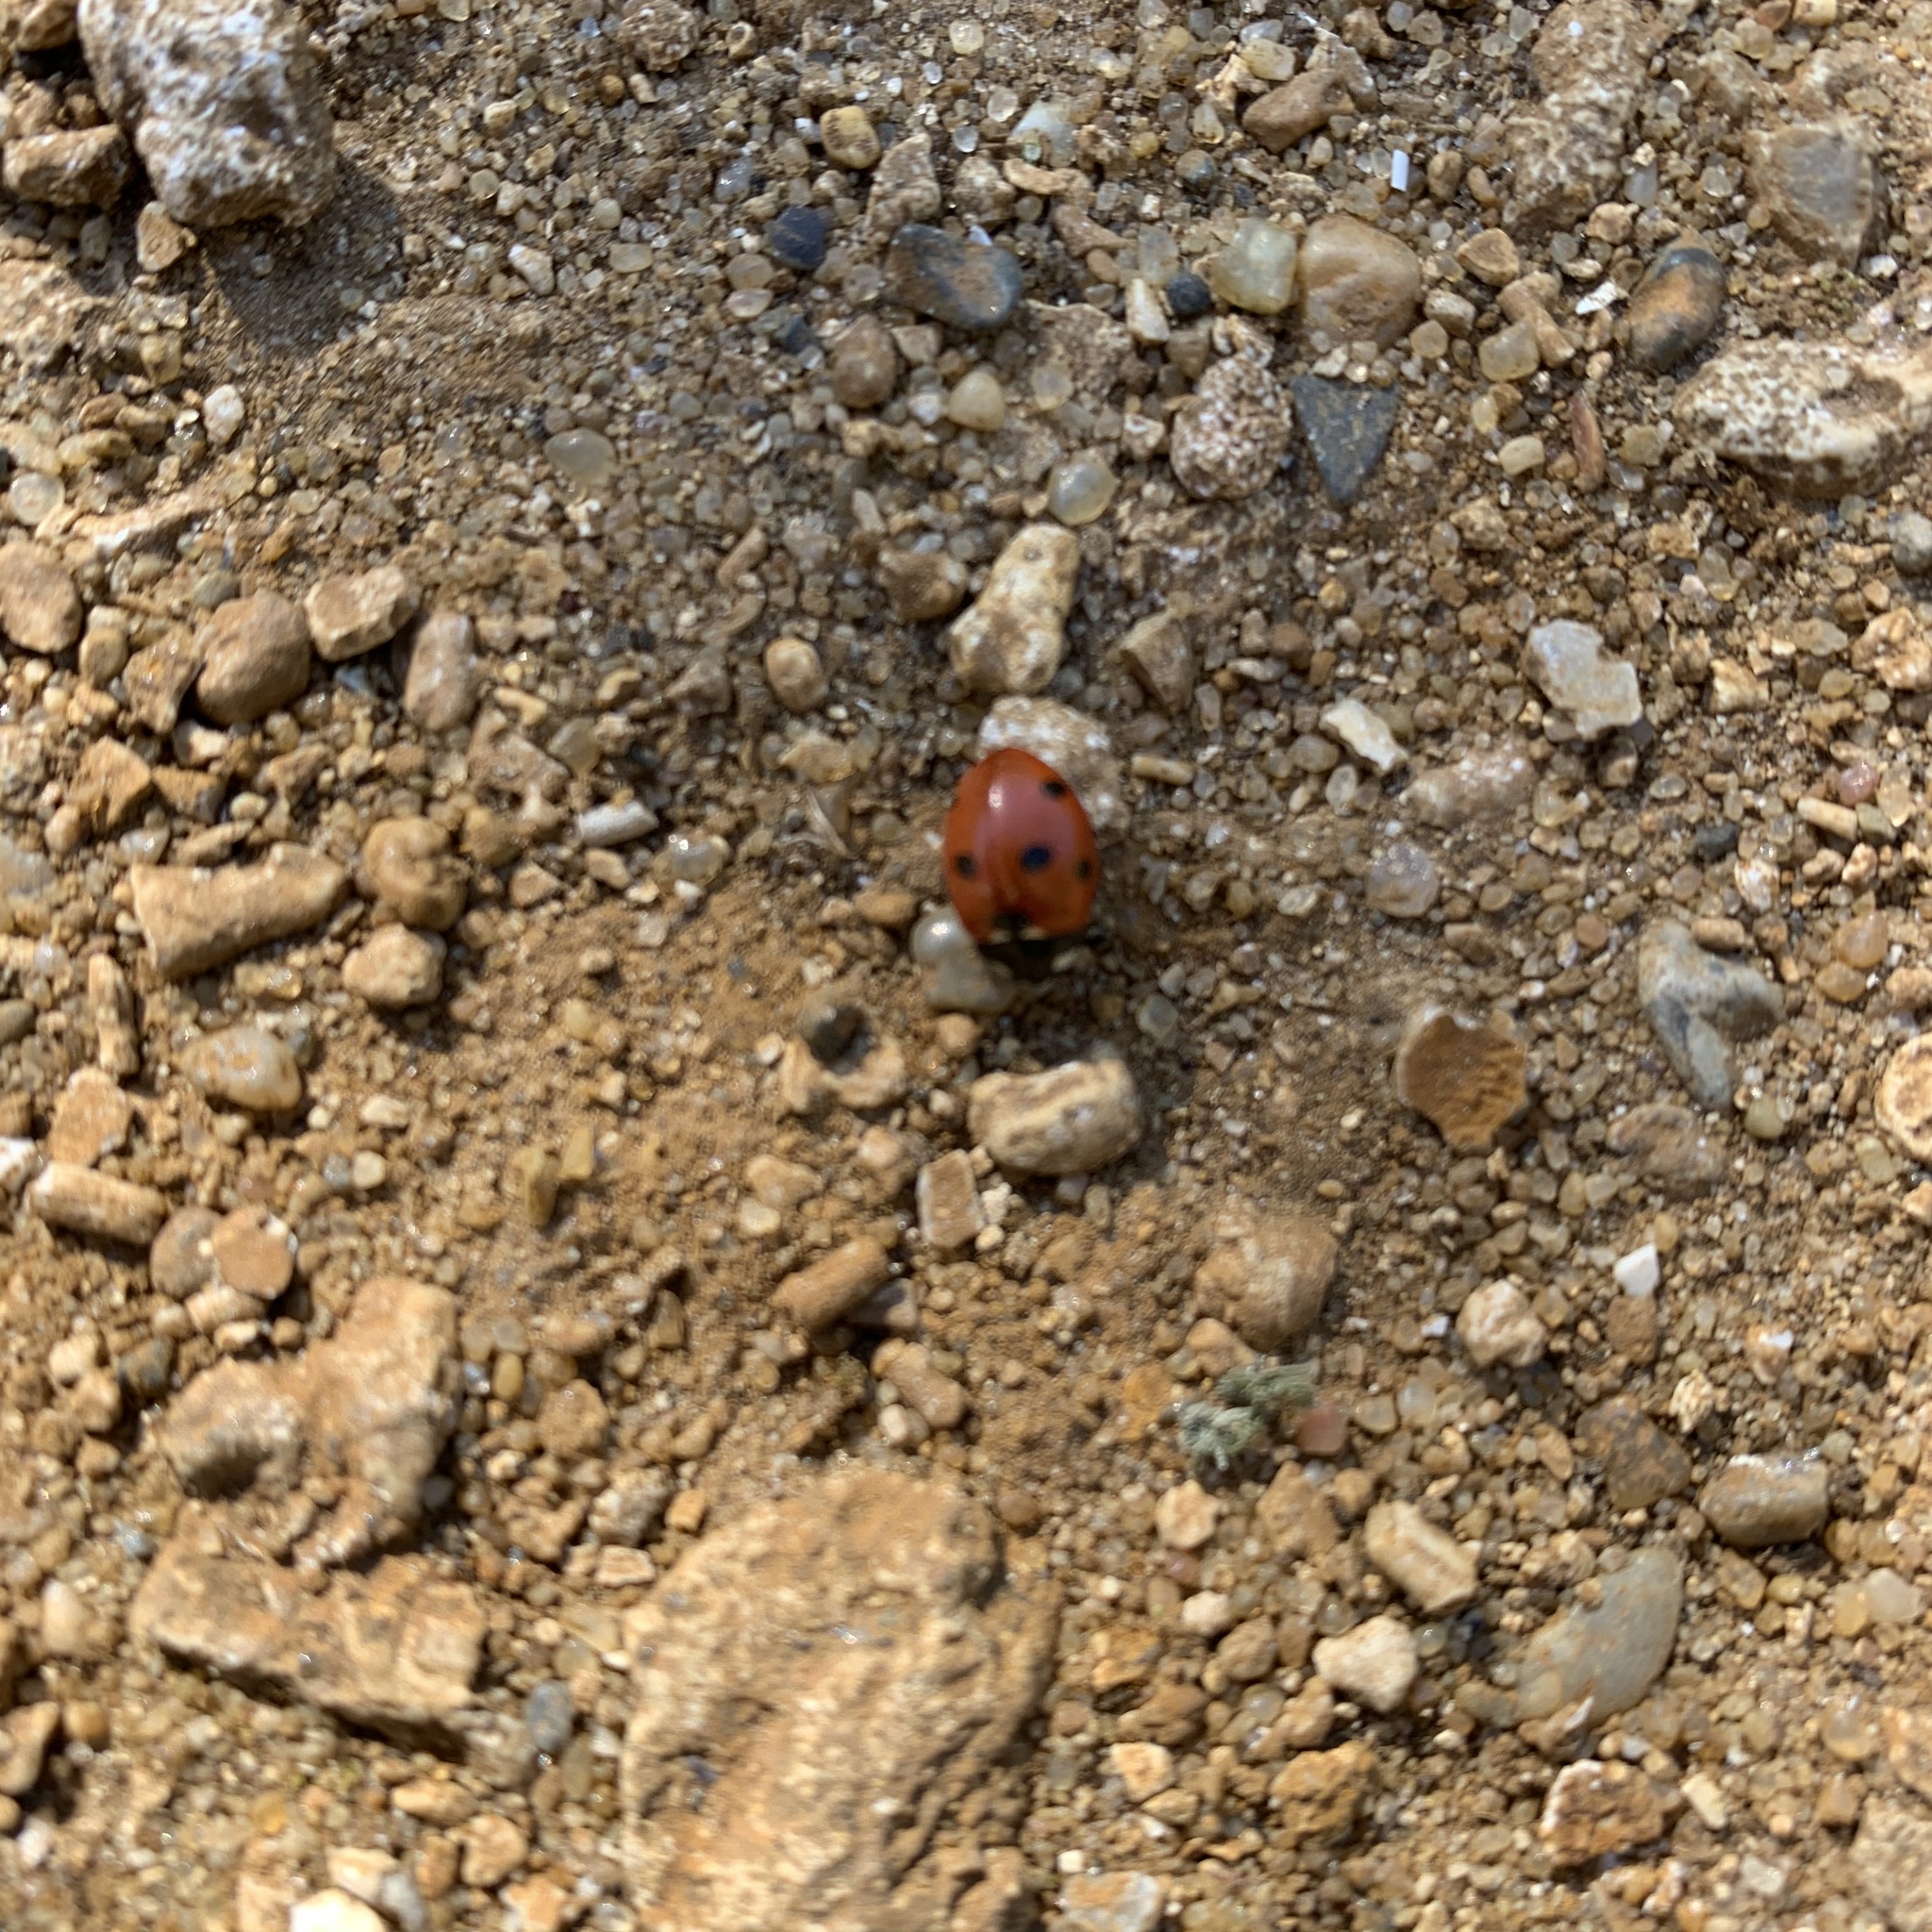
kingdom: Animalia
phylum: Arthropoda
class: Insecta
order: Coleoptera
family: Coccinellidae
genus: Coccinella
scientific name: Coccinella septempunctata
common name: Sevenspotted lady beetle
